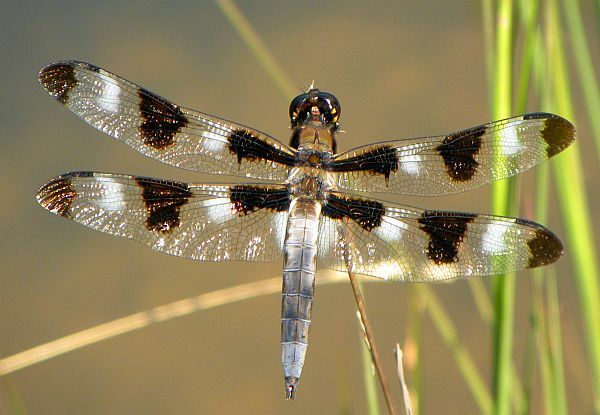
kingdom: Animalia
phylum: Arthropoda
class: Insecta
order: Odonata
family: Libellulidae
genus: Libellula
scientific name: Libellula pulchella
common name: Twelve-spotted skimmer
